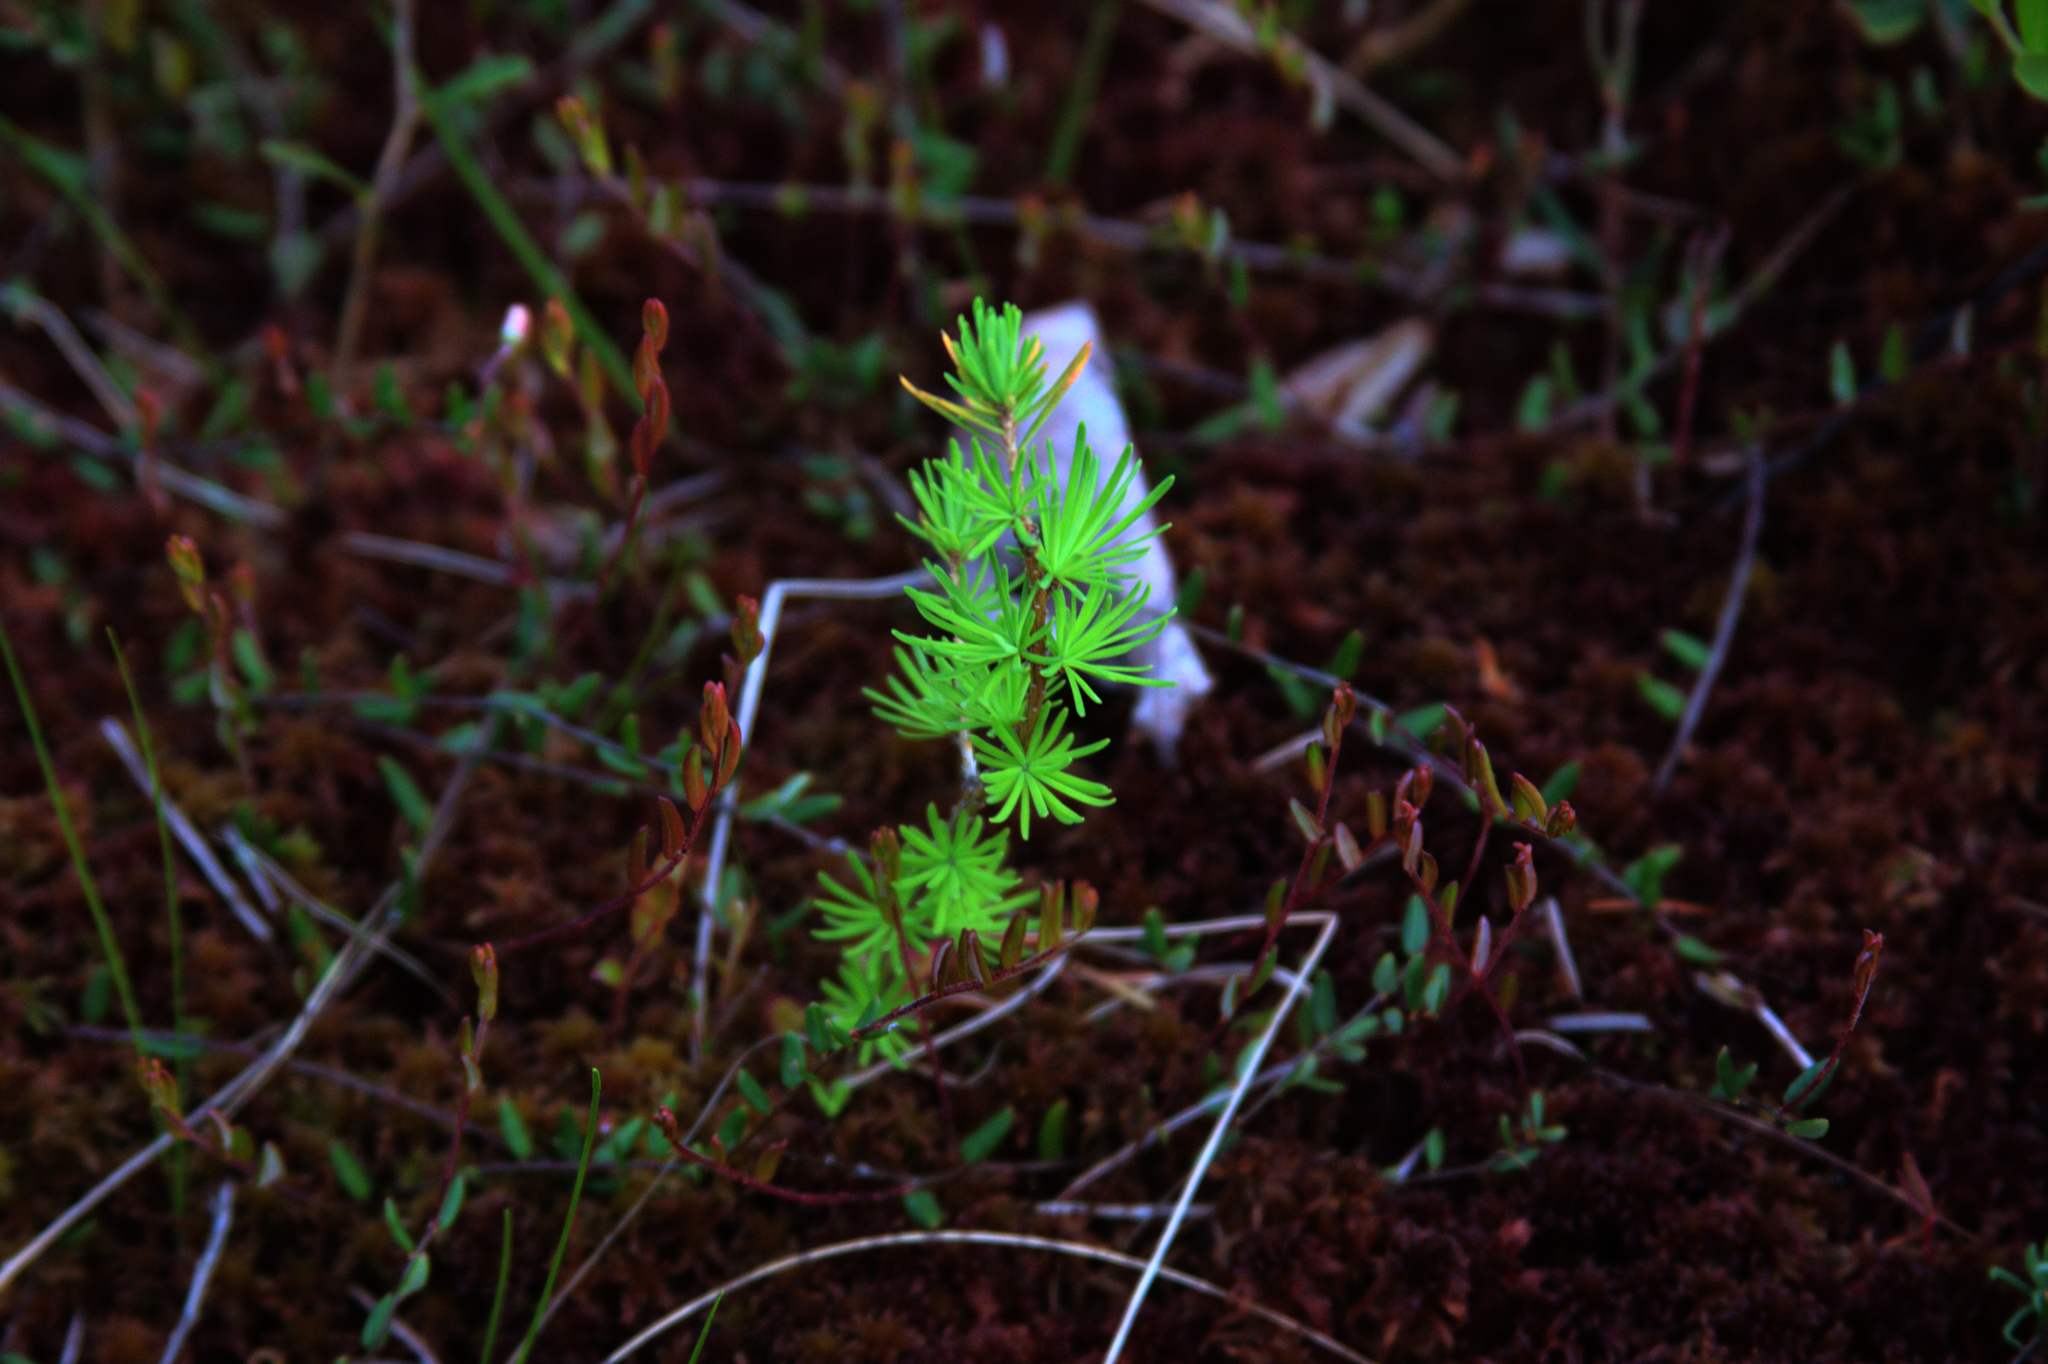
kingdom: Plantae
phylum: Tracheophyta
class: Pinopsida
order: Pinales
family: Pinaceae
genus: Larix
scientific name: Larix laricina
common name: American larch
